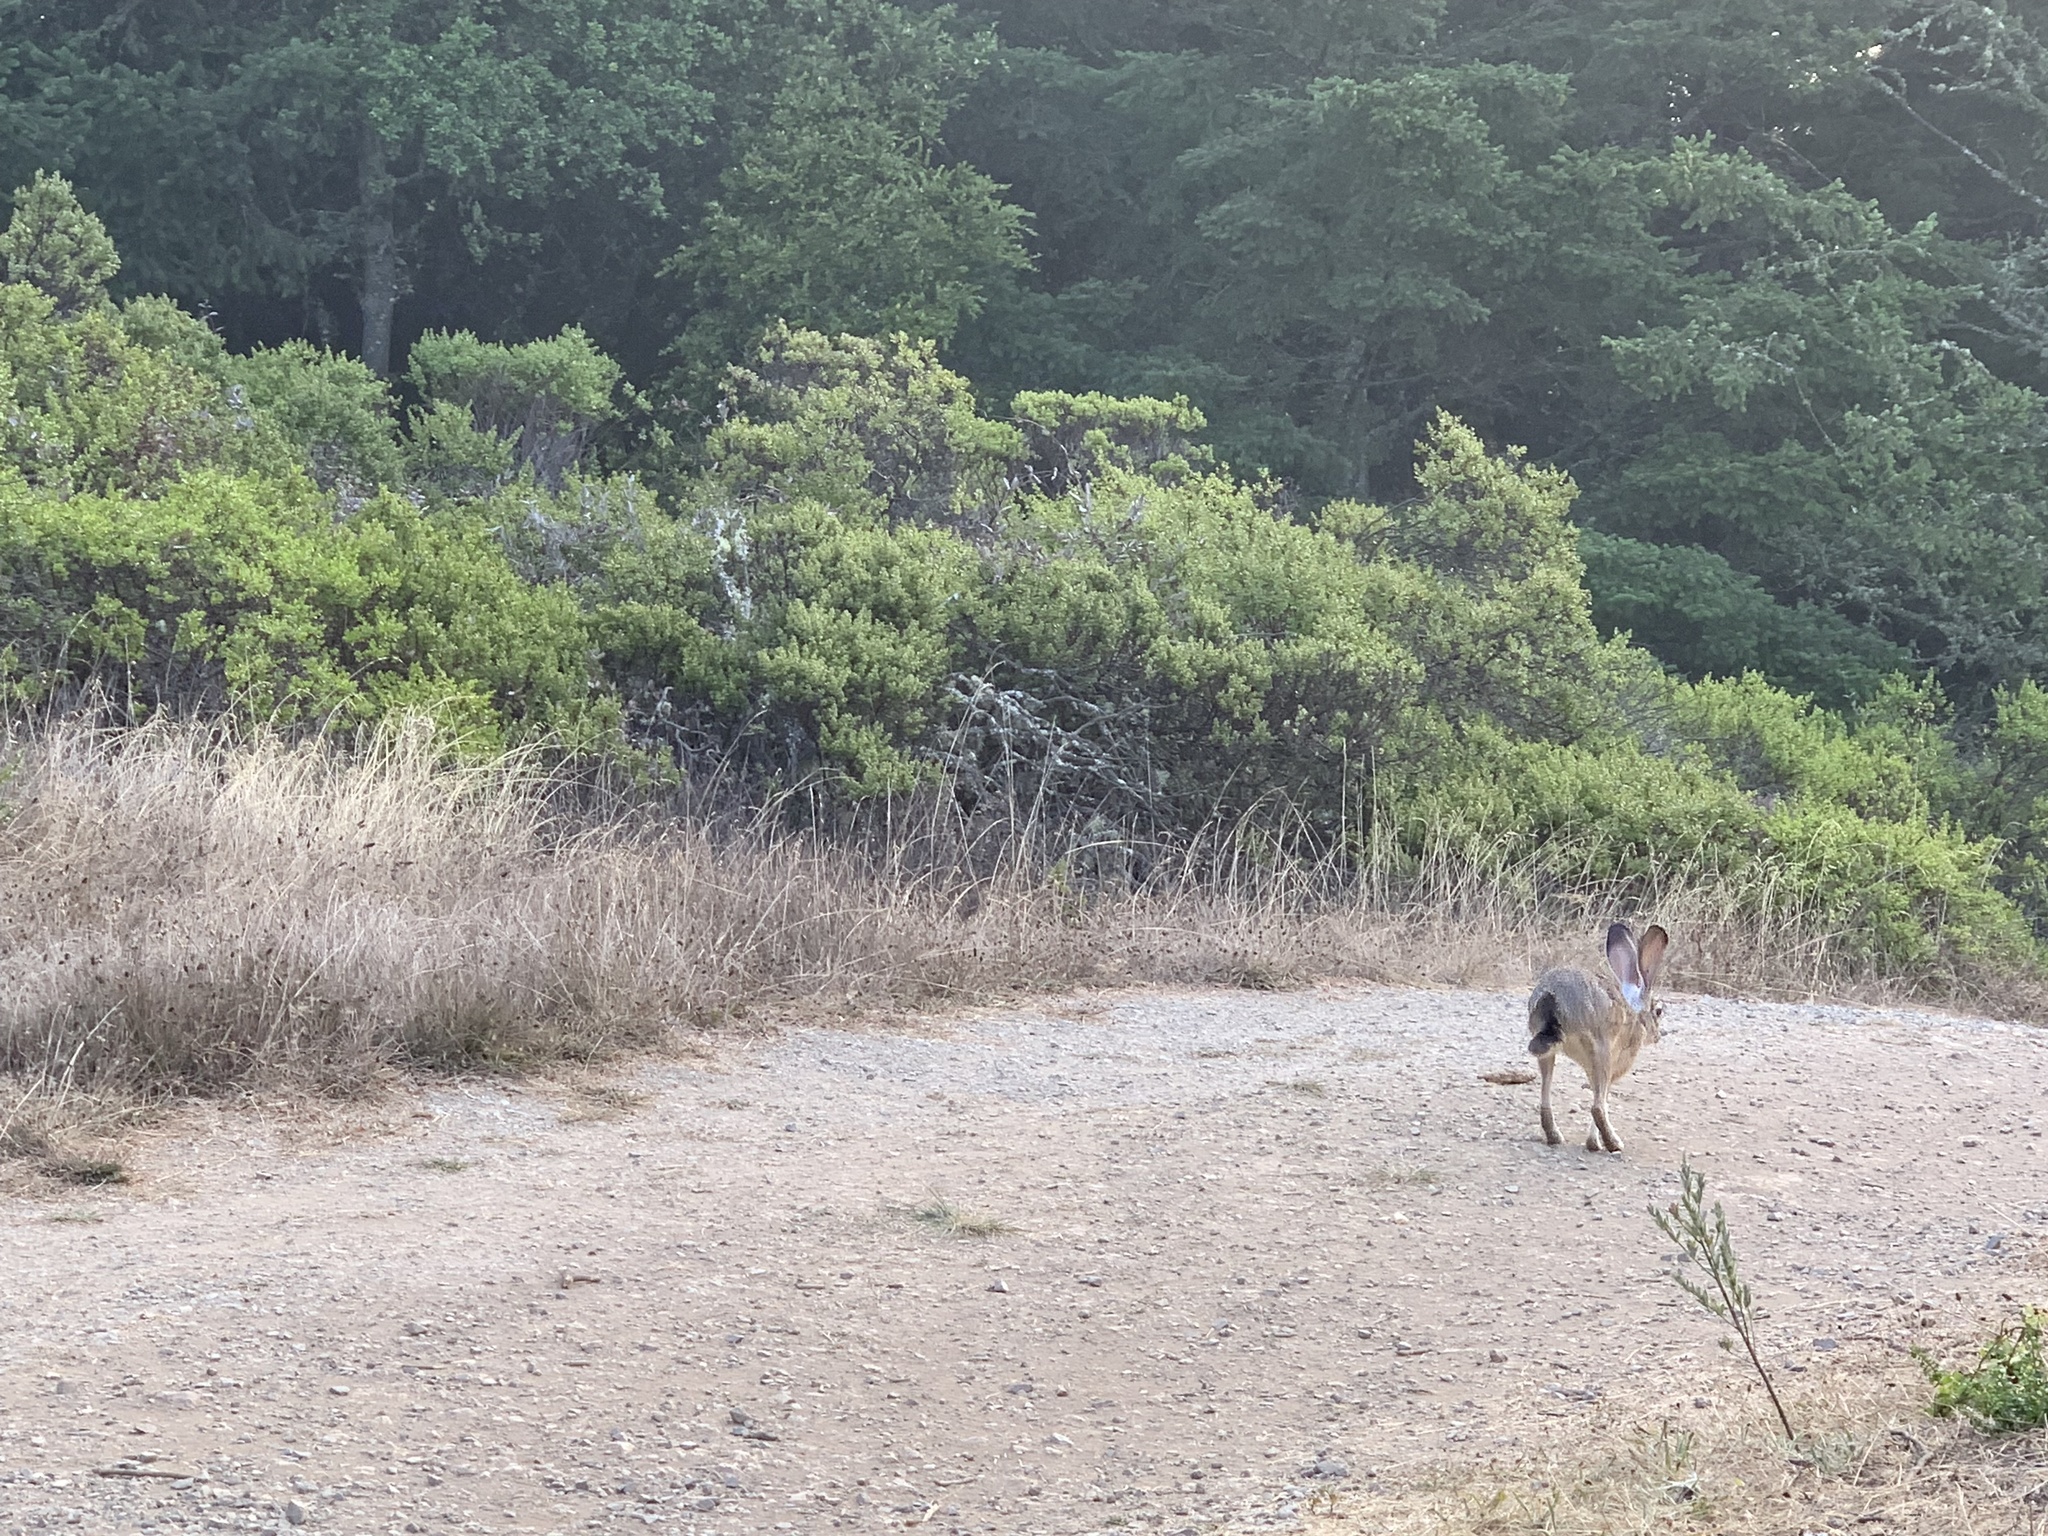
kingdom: Animalia
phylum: Chordata
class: Mammalia
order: Lagomorpha
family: Leporidae
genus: Lepus
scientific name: Lepus californicus
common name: Black-tailed jackrabbit
